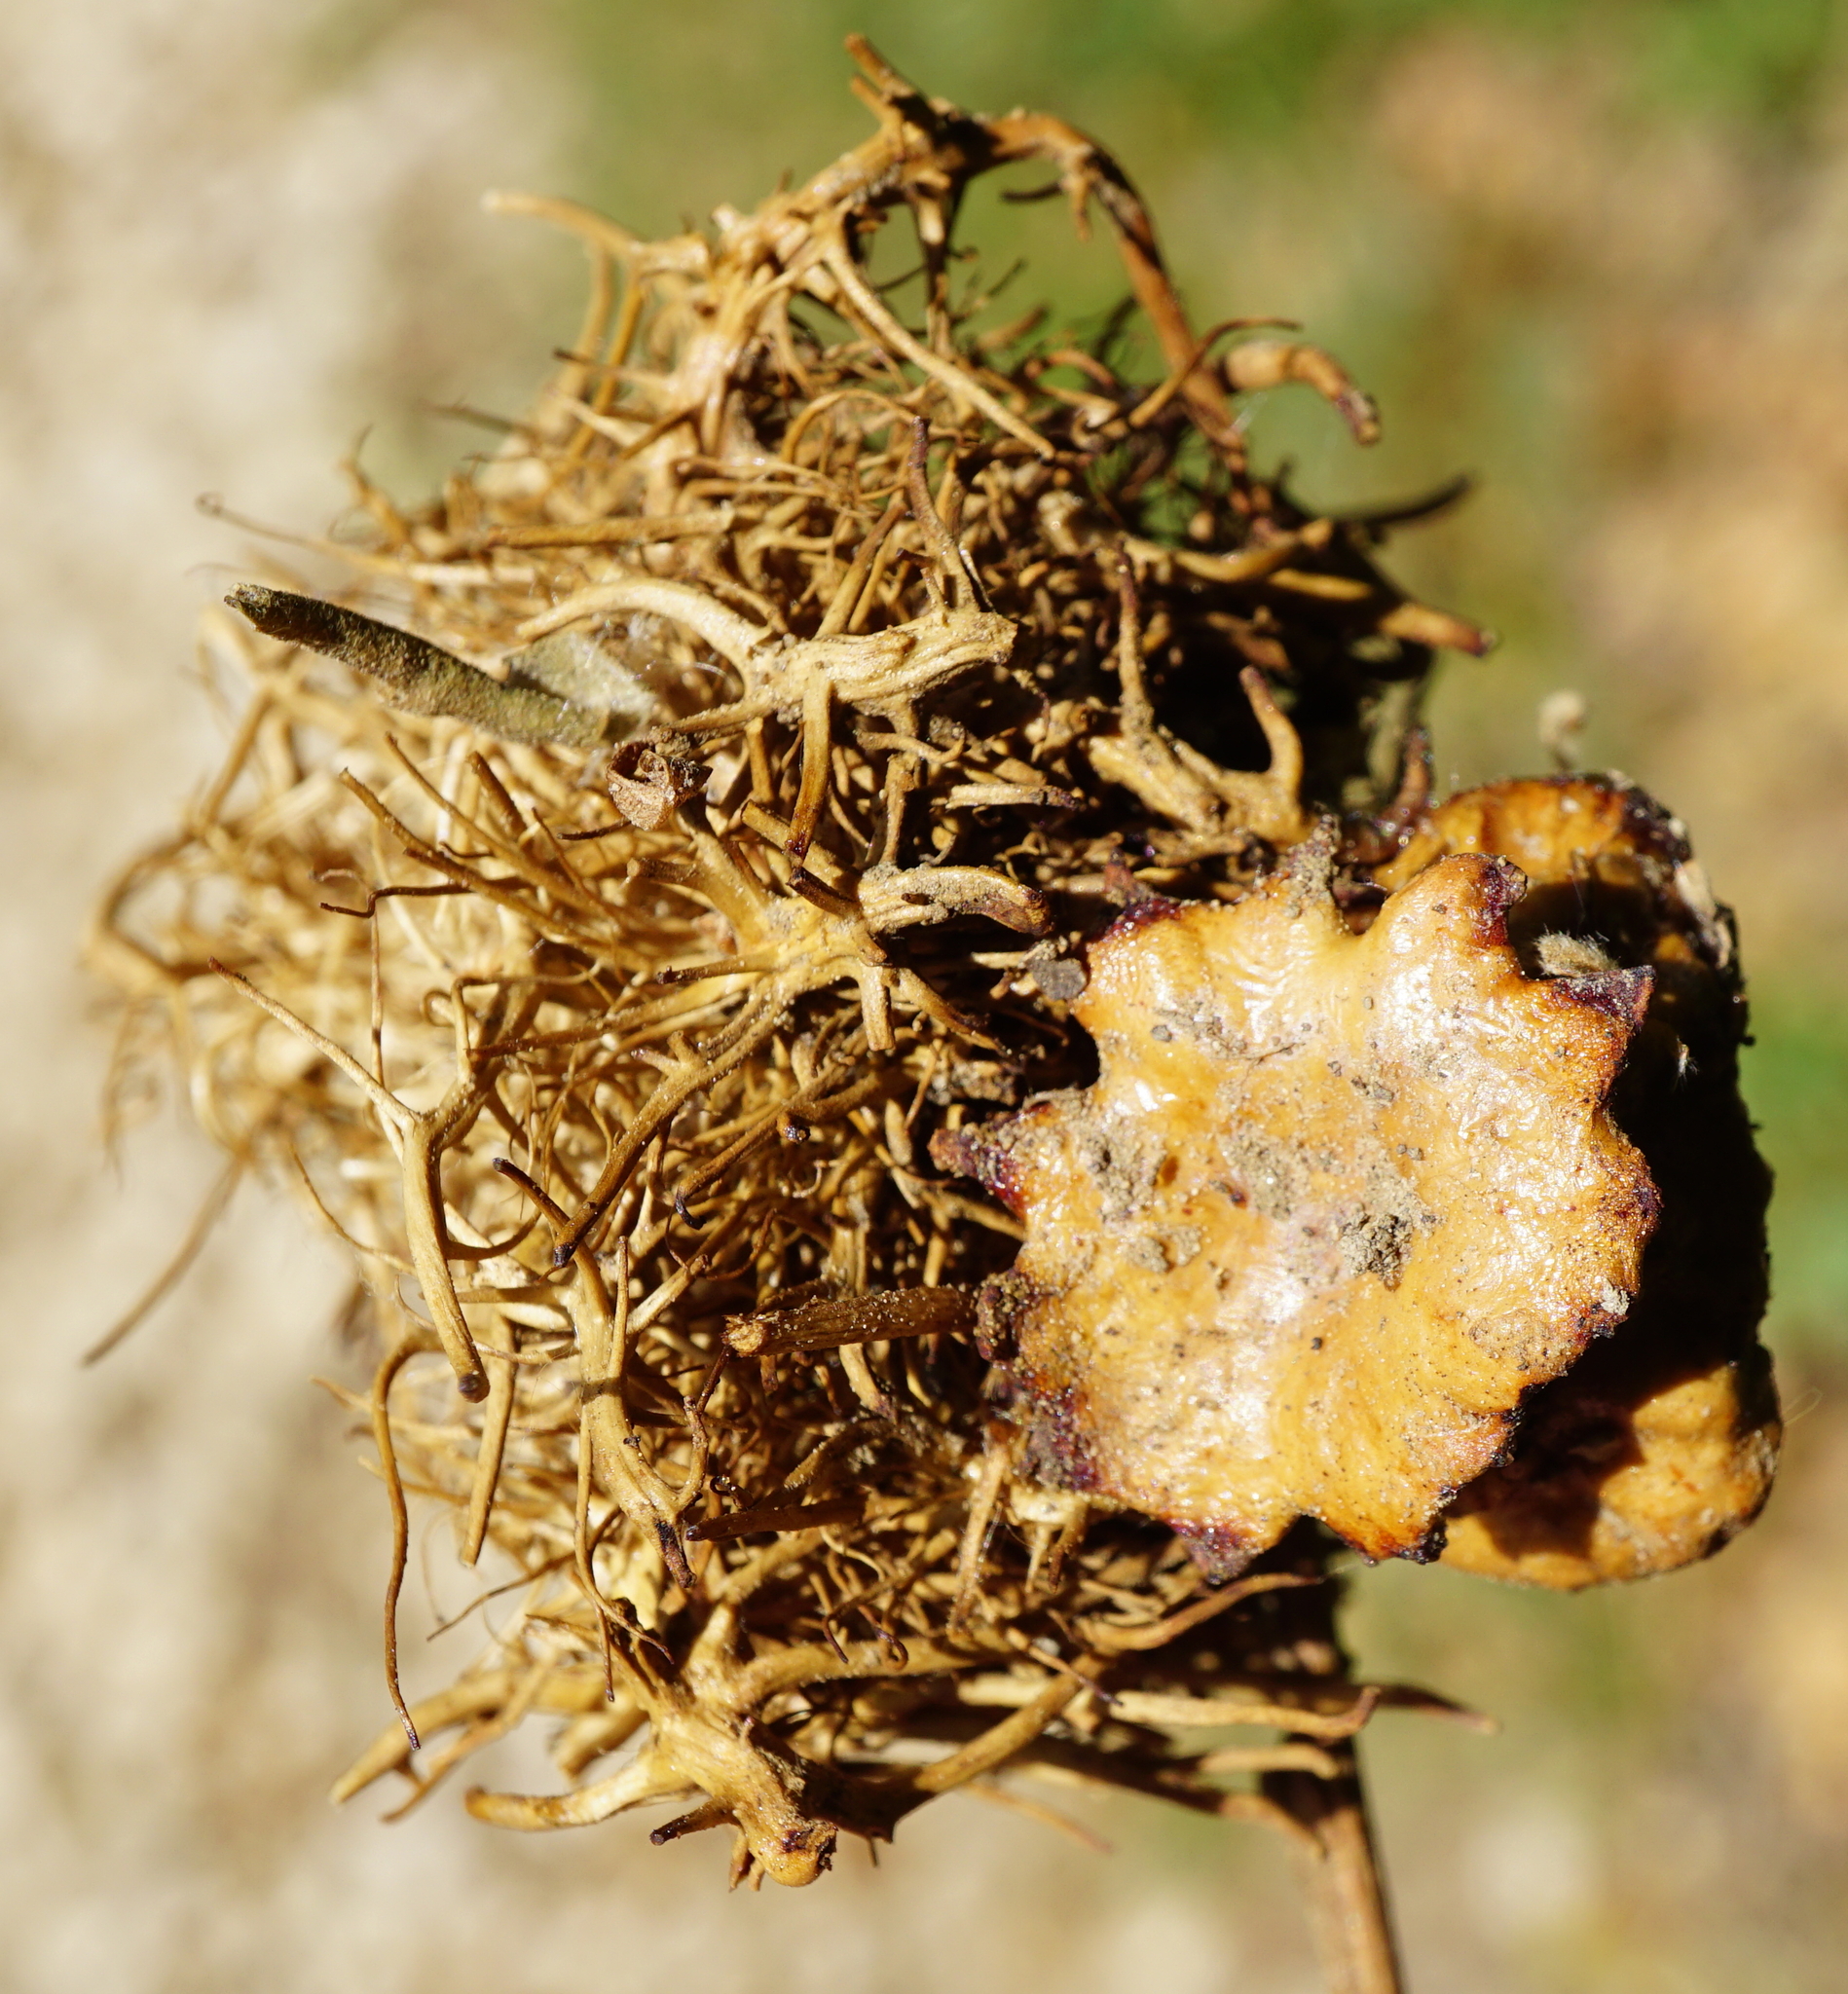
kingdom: Animalia
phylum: Arthropoda
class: Insecta
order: Hymenoptera
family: Cynipidae
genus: Andricus
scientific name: Andricus dentimitratus
